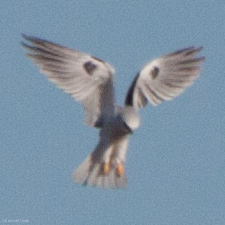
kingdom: Animalia
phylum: Chordata
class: Aves
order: Accipitriformes
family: Accipitridae
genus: Elanus
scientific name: Elanus leucurus
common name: White-tailed kite
